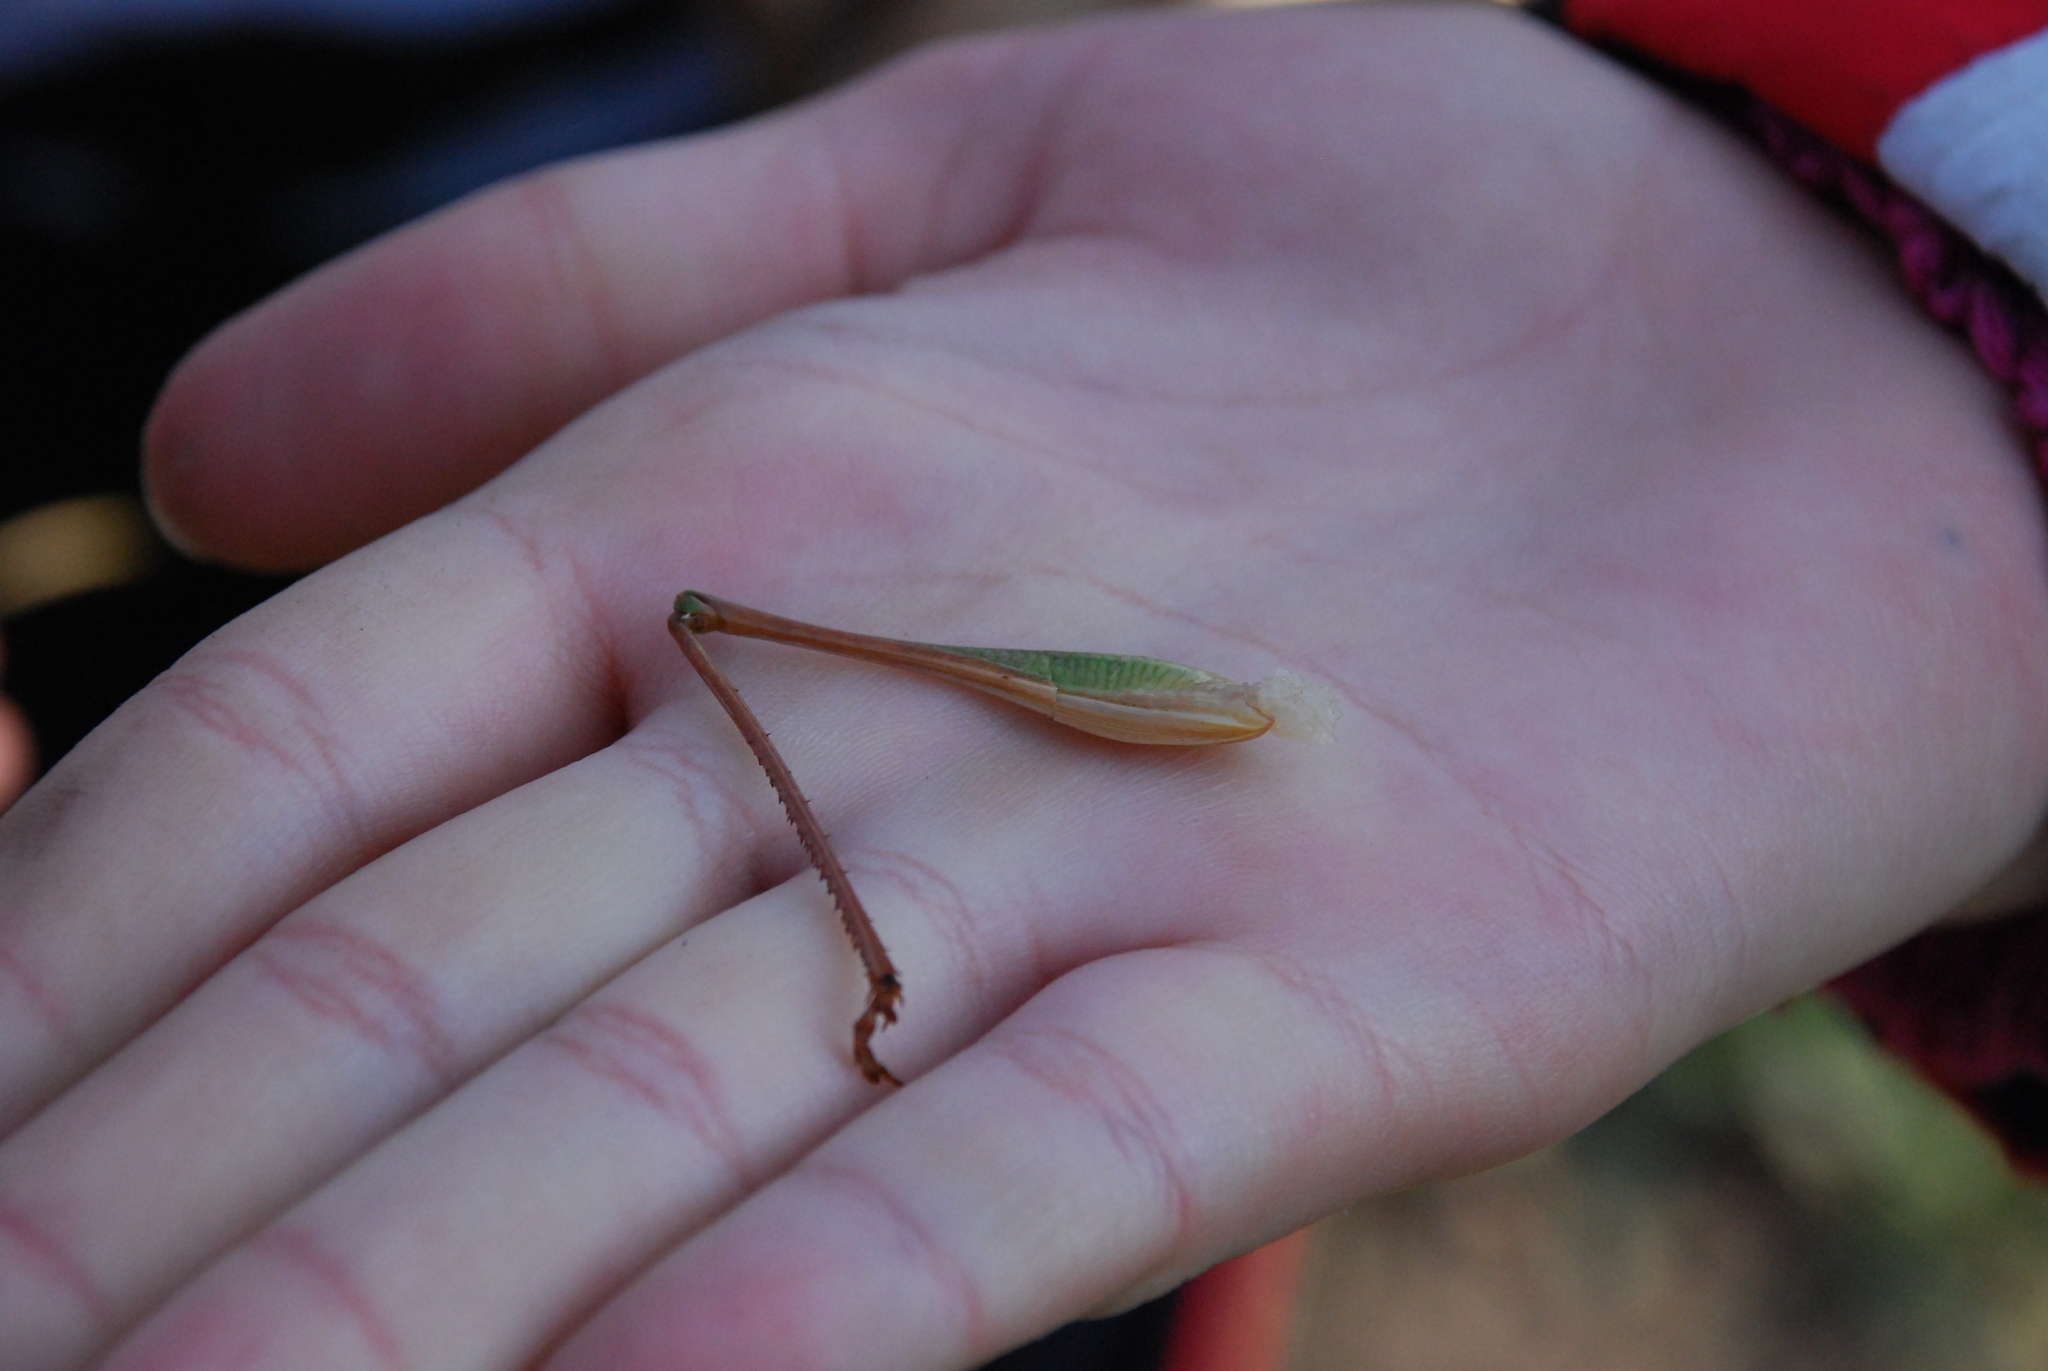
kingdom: Animalia
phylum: Arthropoda
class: Insecta
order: Orthoptera
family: Tettigoniidae
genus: Decticus
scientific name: Decticus verrucivorus
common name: Wart-biter
